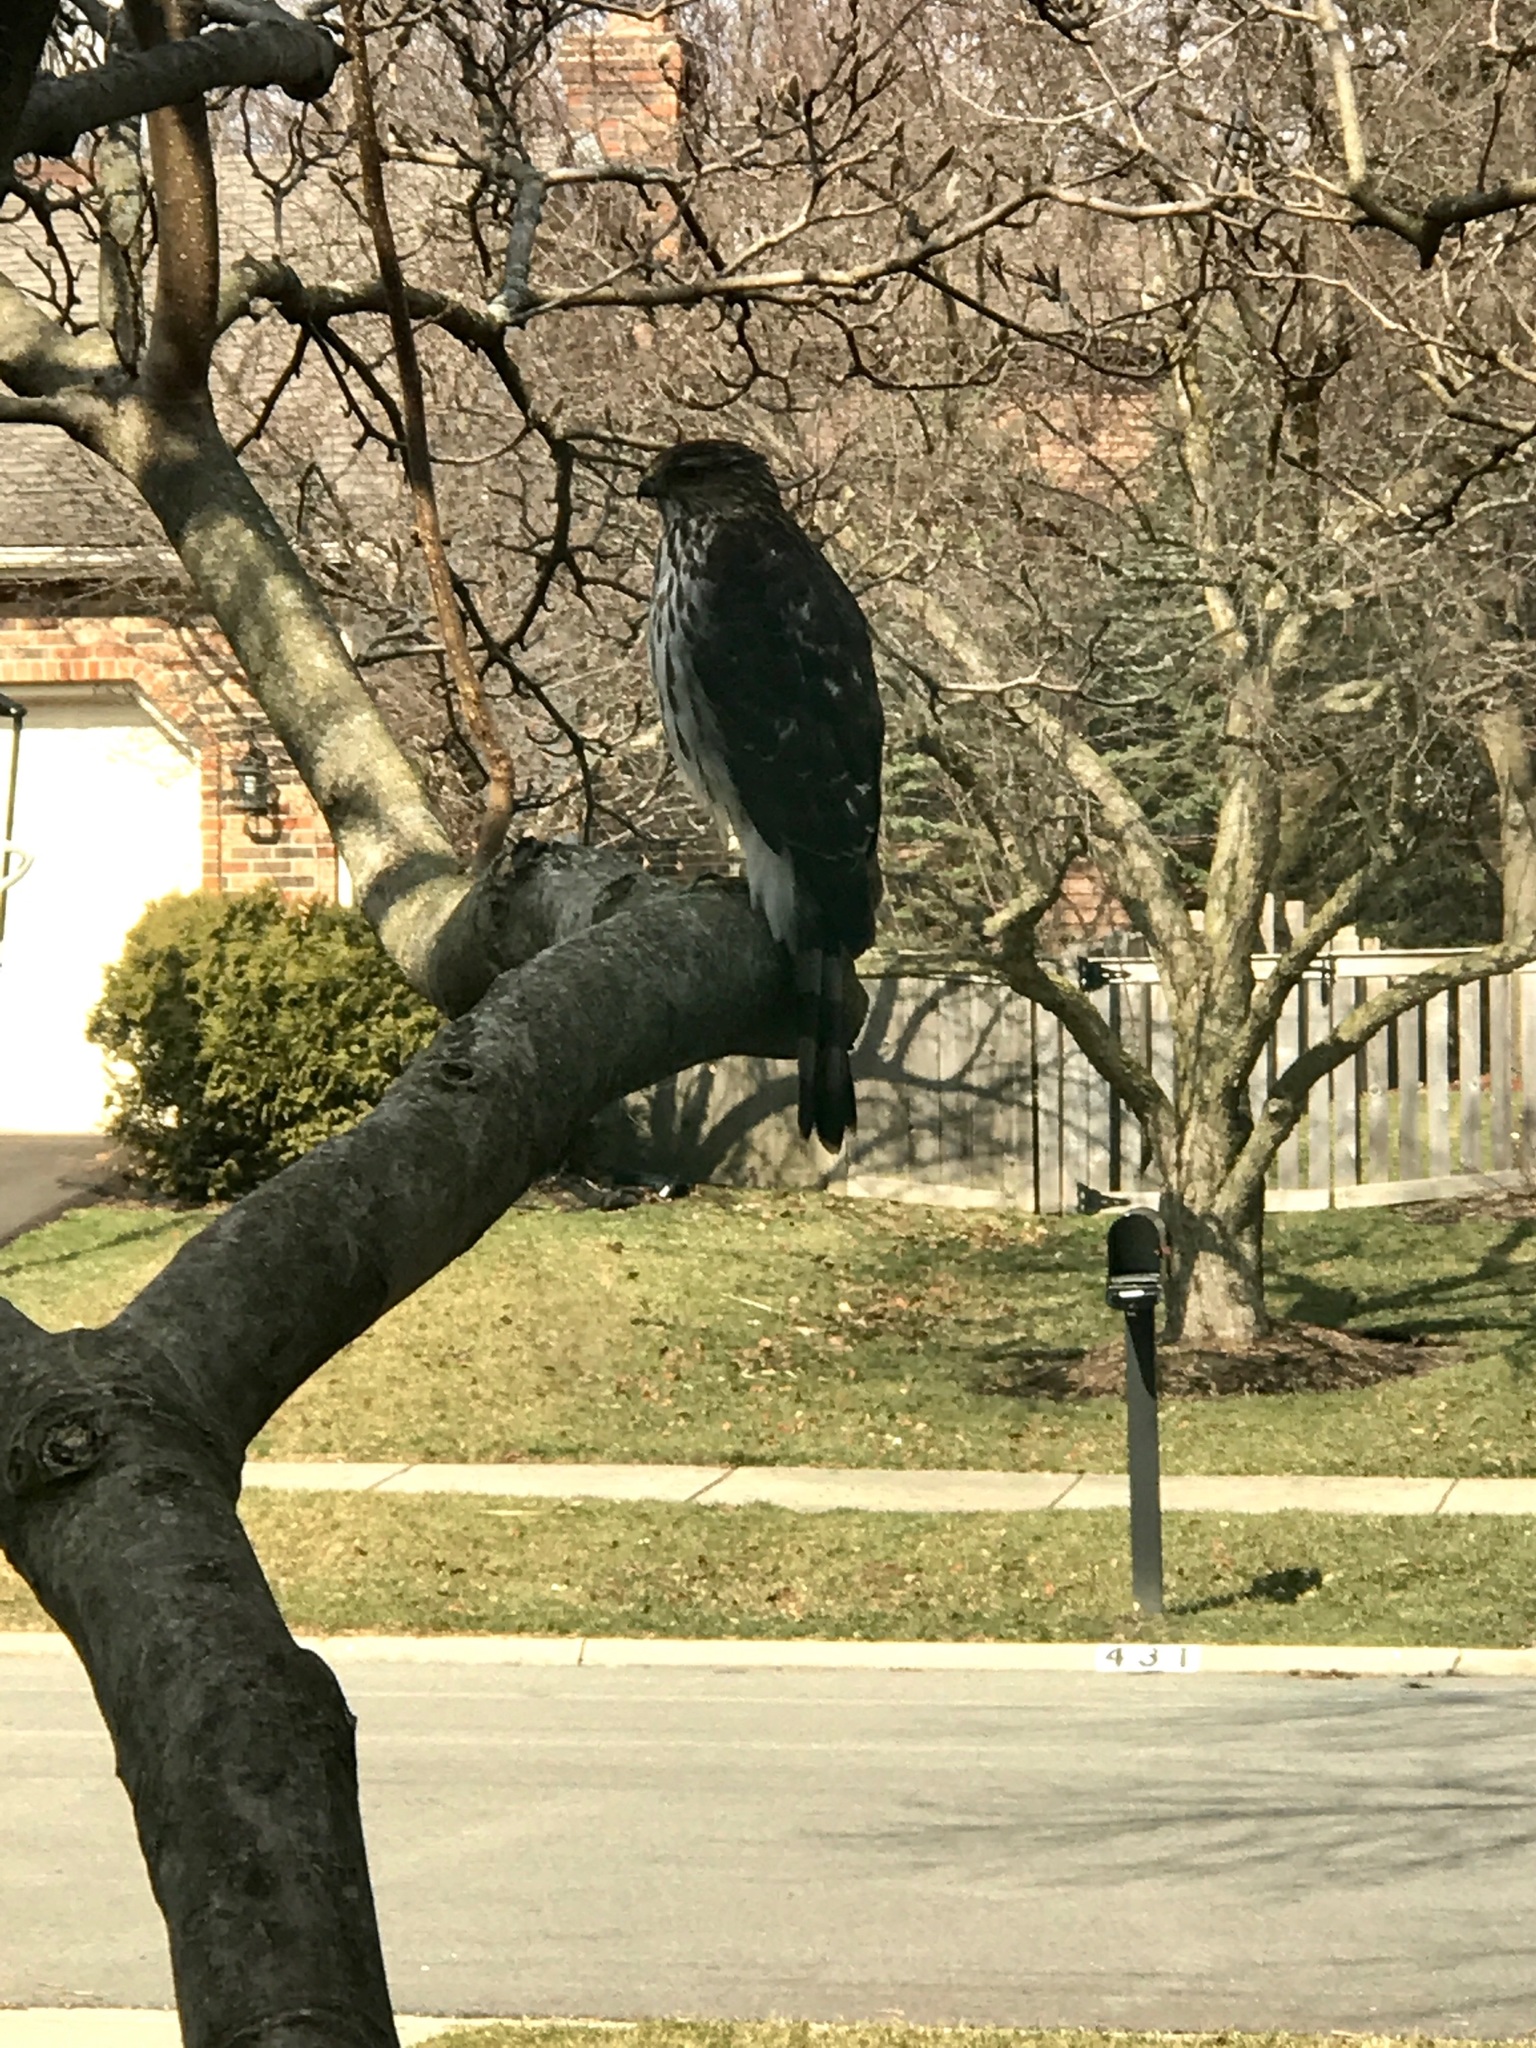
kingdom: Animalia
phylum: Chordata
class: Aves
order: Accipitriformes
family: Accipitridae
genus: Accipiter
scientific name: Accipiter cooperii
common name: Cooper's hawk
